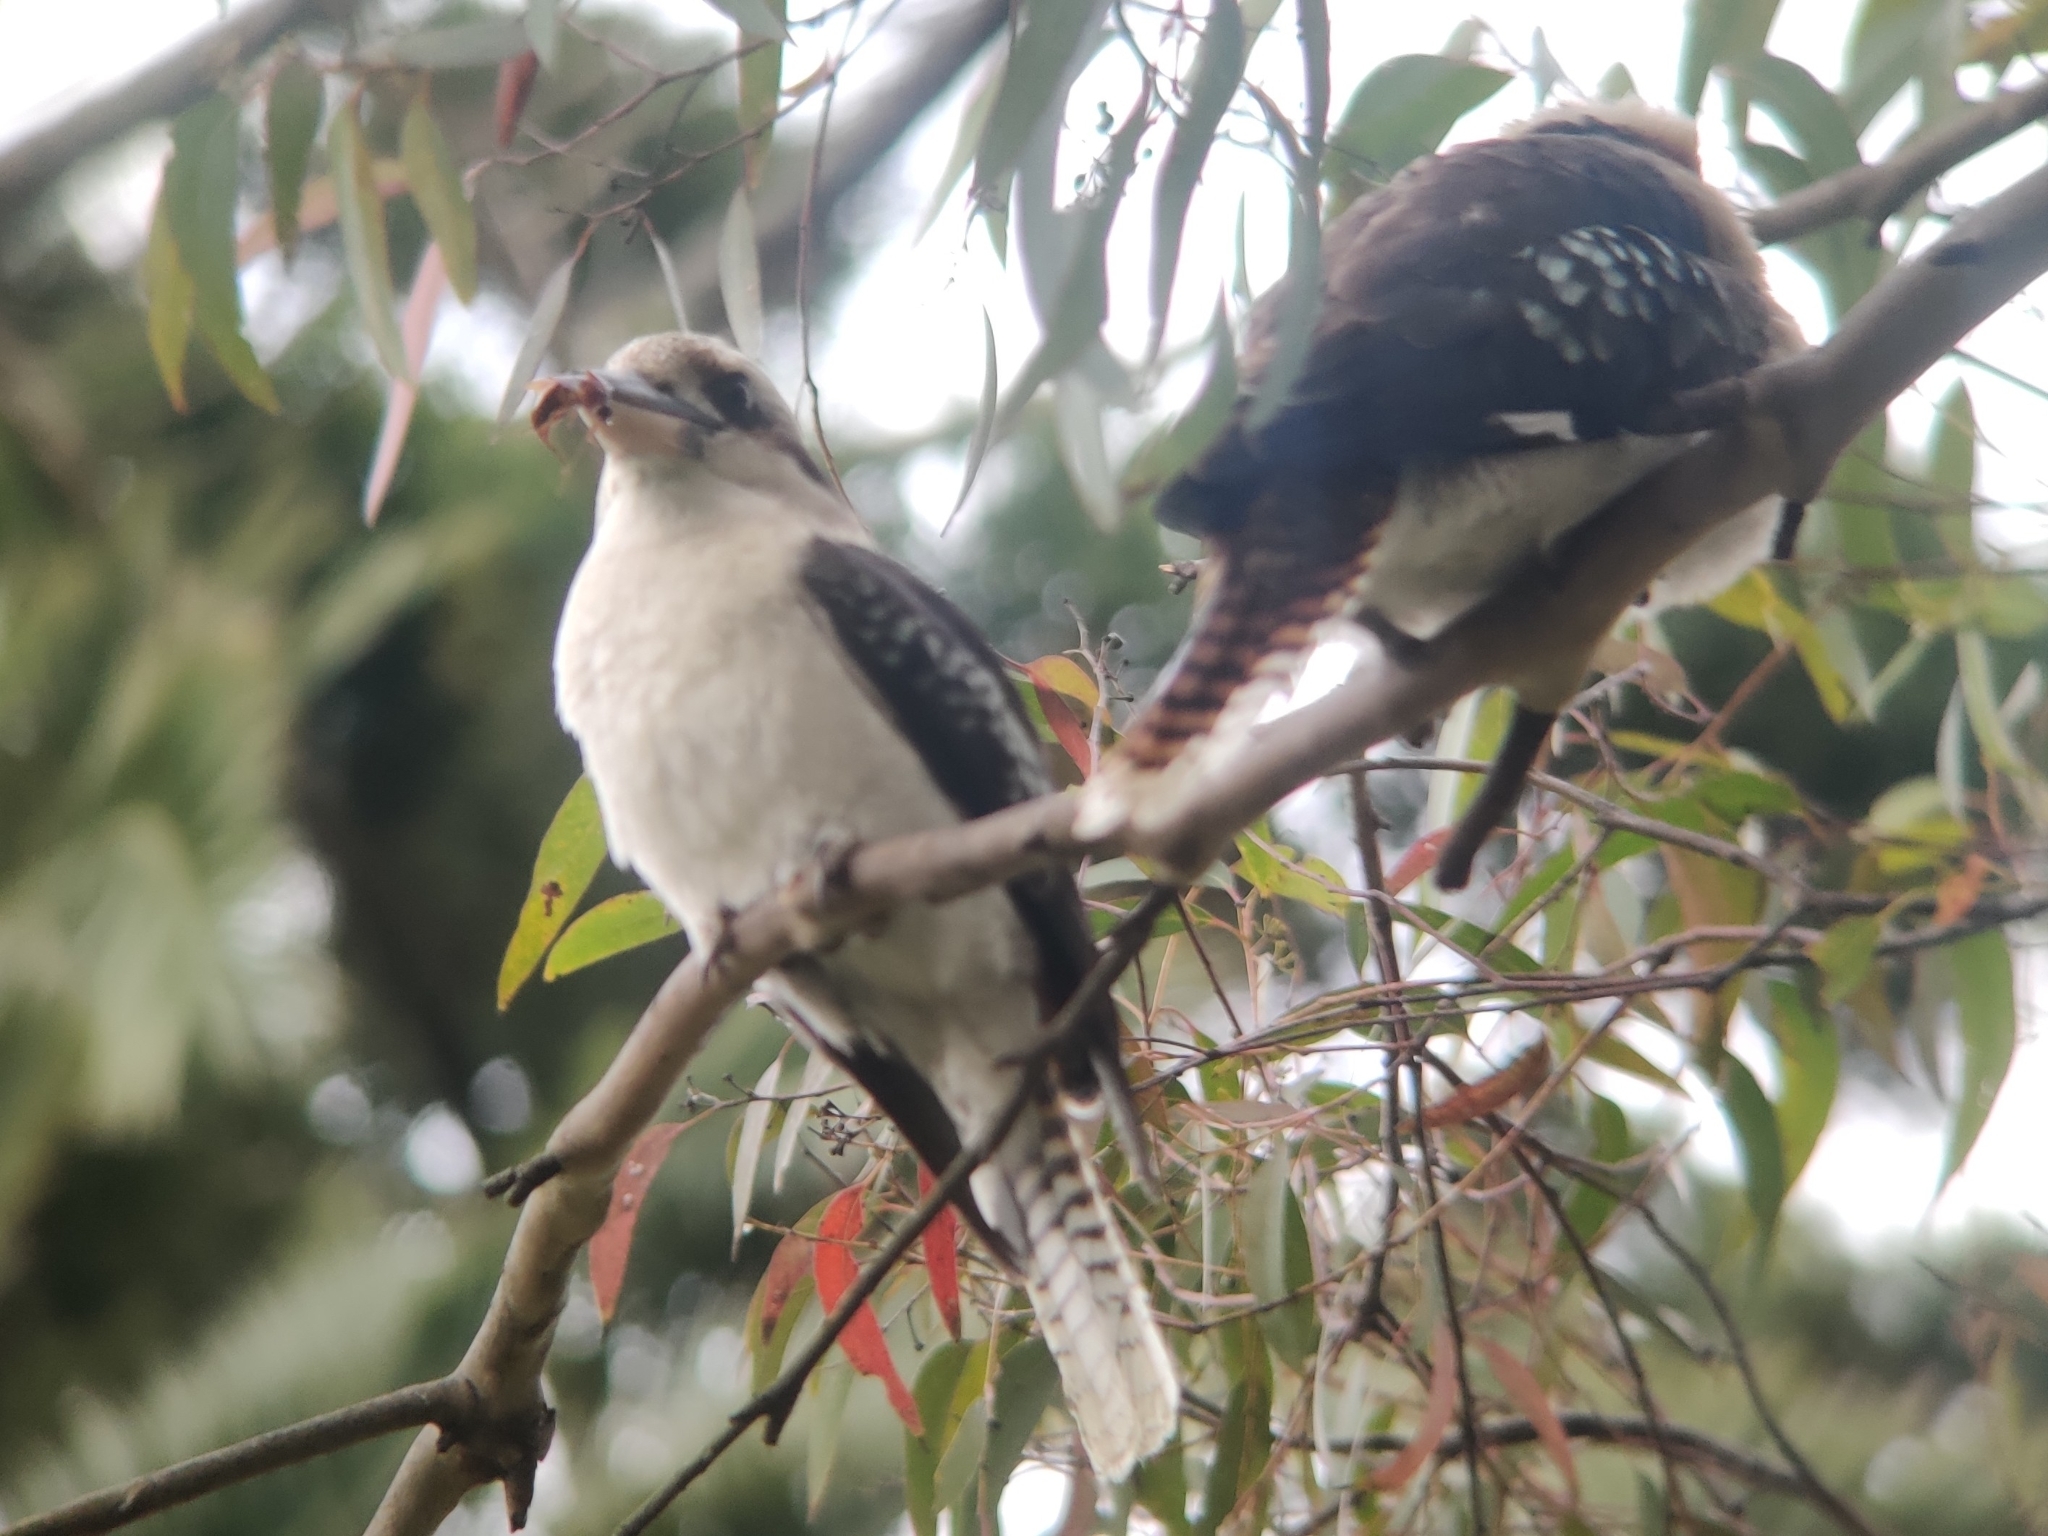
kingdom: Animalia
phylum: Chordata
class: Aves
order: Coraciiformes
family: Alcedinidae
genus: Dacelo
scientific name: Dacelo novaeguineae
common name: Laughing kookaburra
